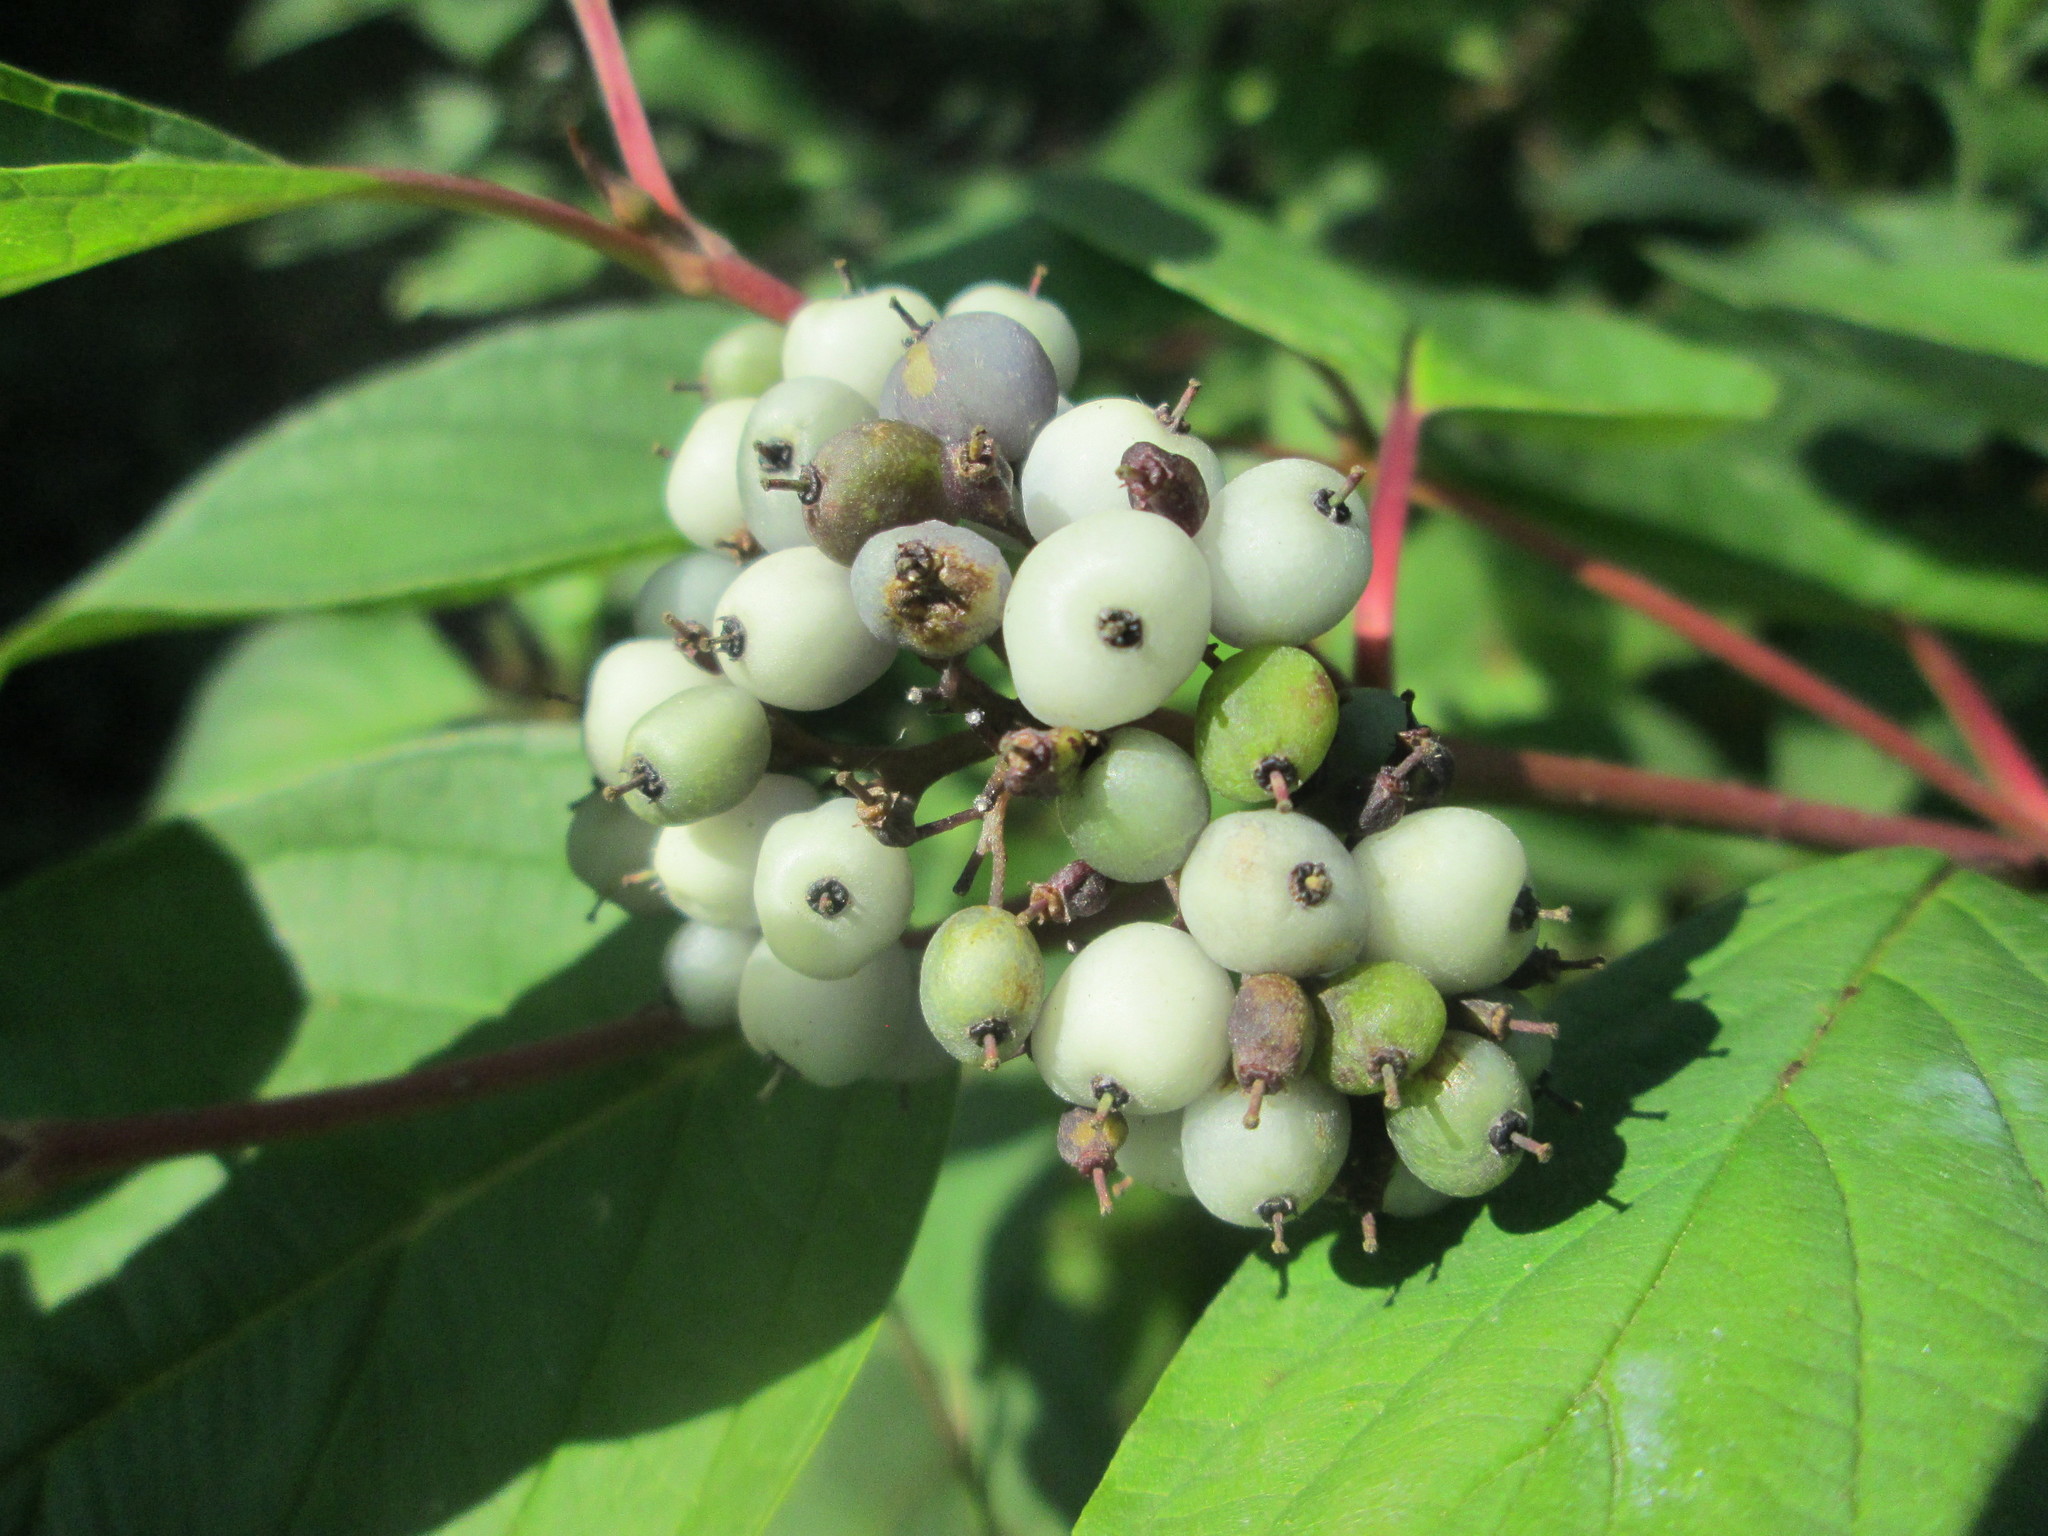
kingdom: Plantae
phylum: Tracheophyta
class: Magnoliopsida
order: Cornales
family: Cornaceae
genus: Cornus
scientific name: Cornus sericea
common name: Red-osier dogwood
